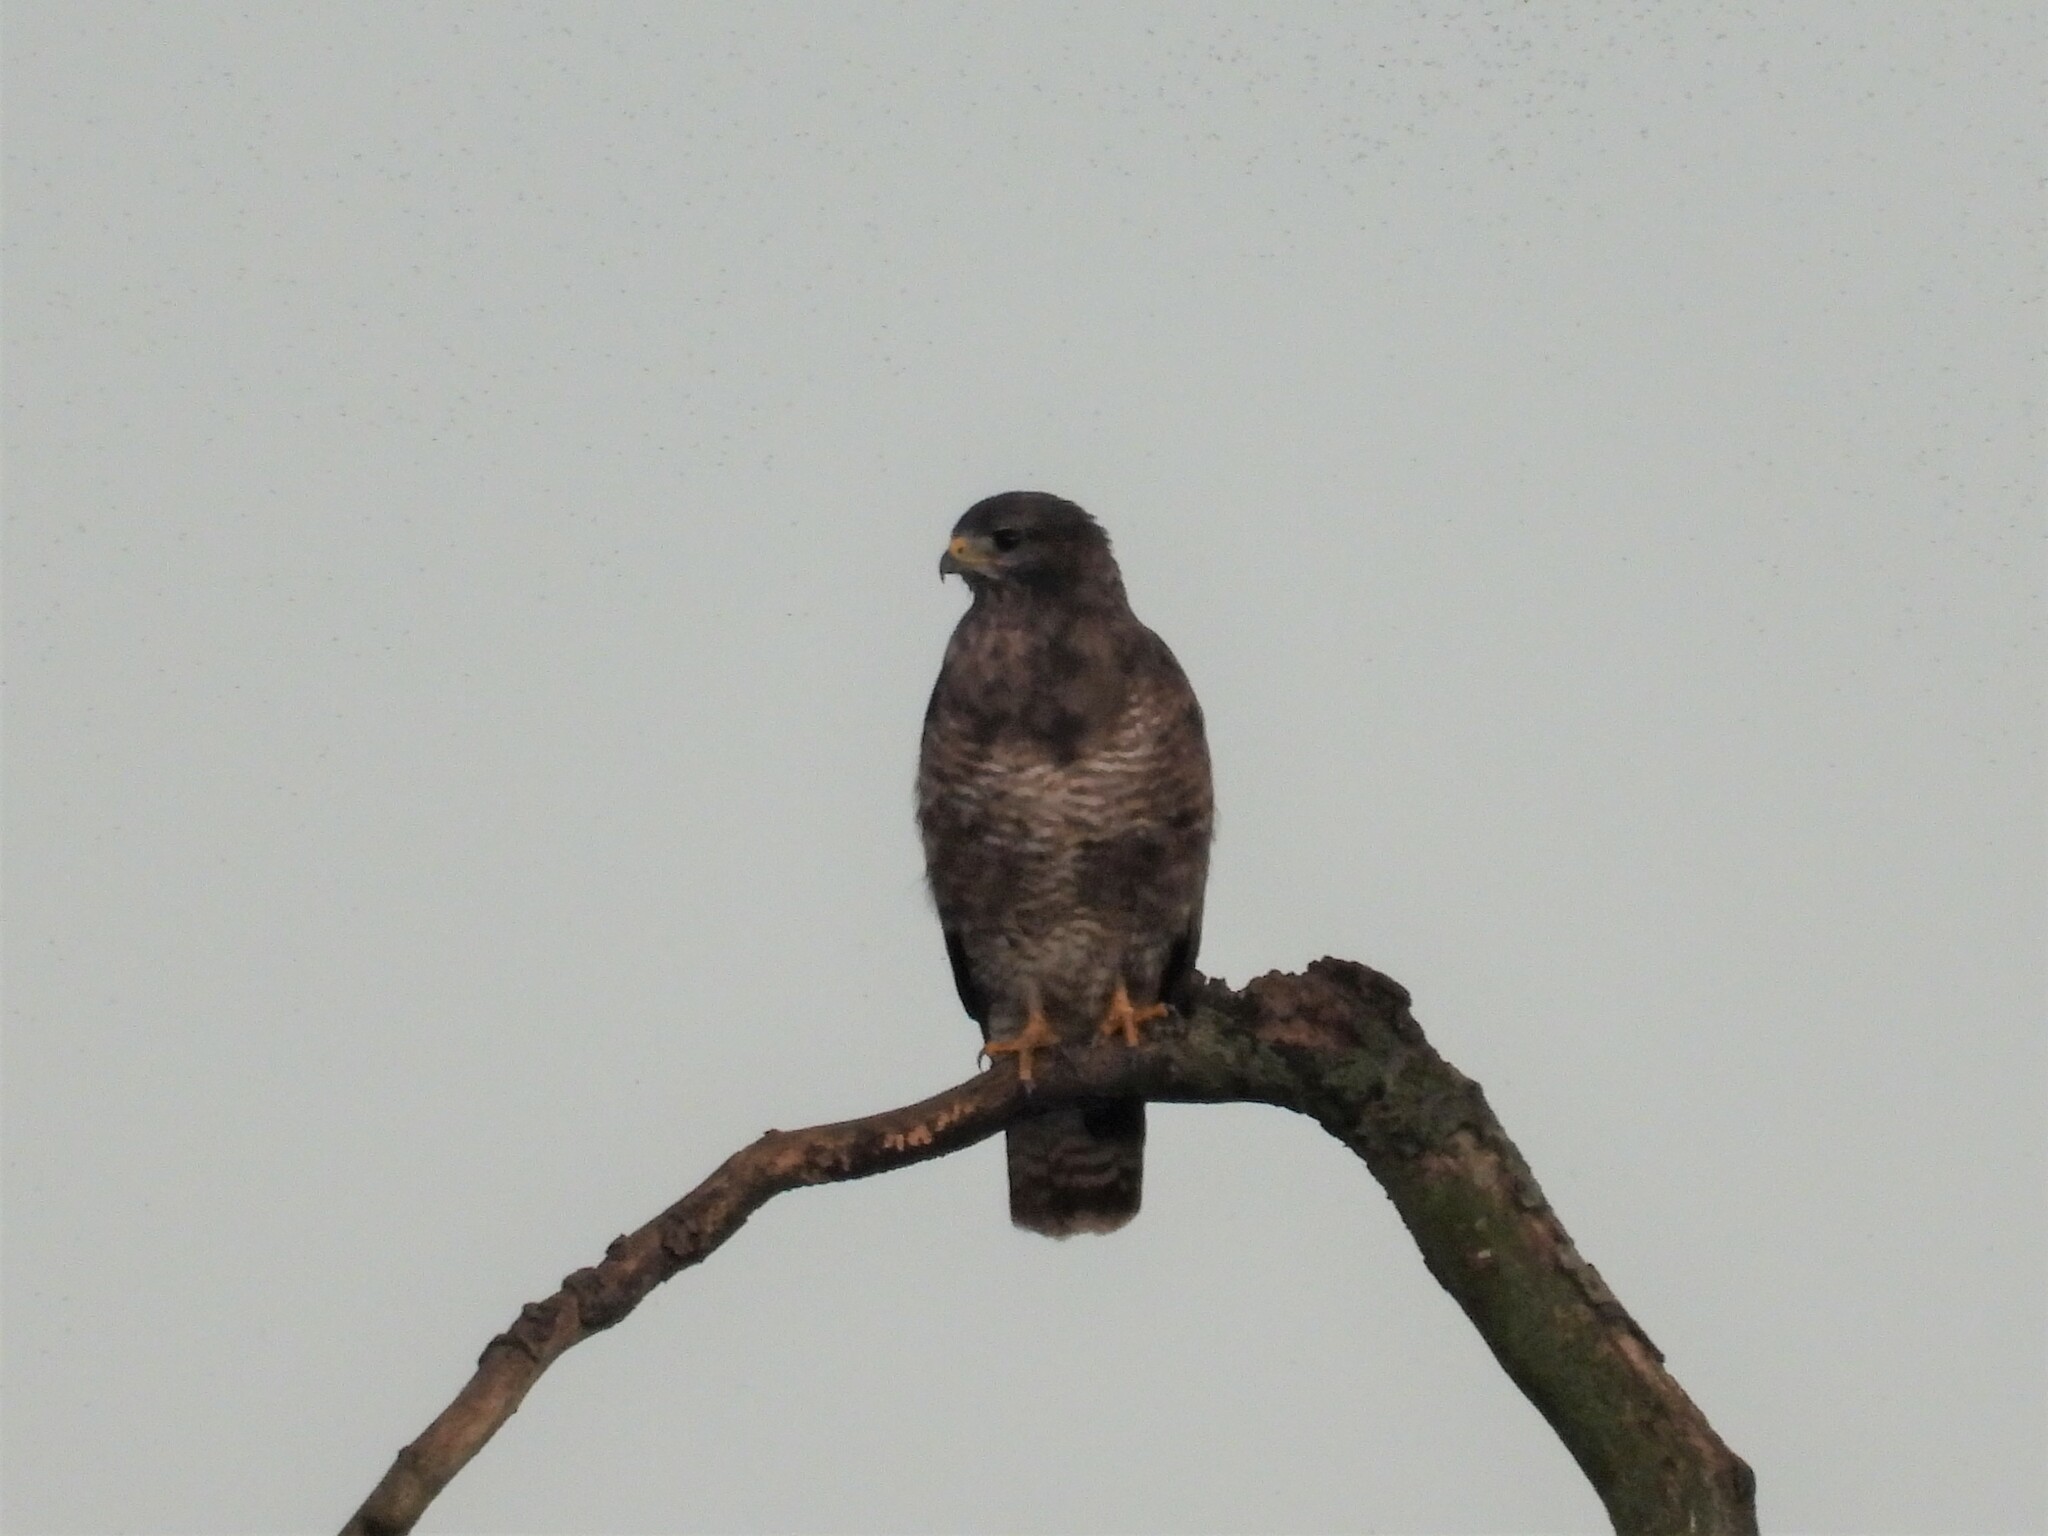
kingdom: Animalia
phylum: Chordata
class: Aves
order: Accipitriformes
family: Accipitridae
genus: Buteo
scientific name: Buteo buteo
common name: Common buzzard
